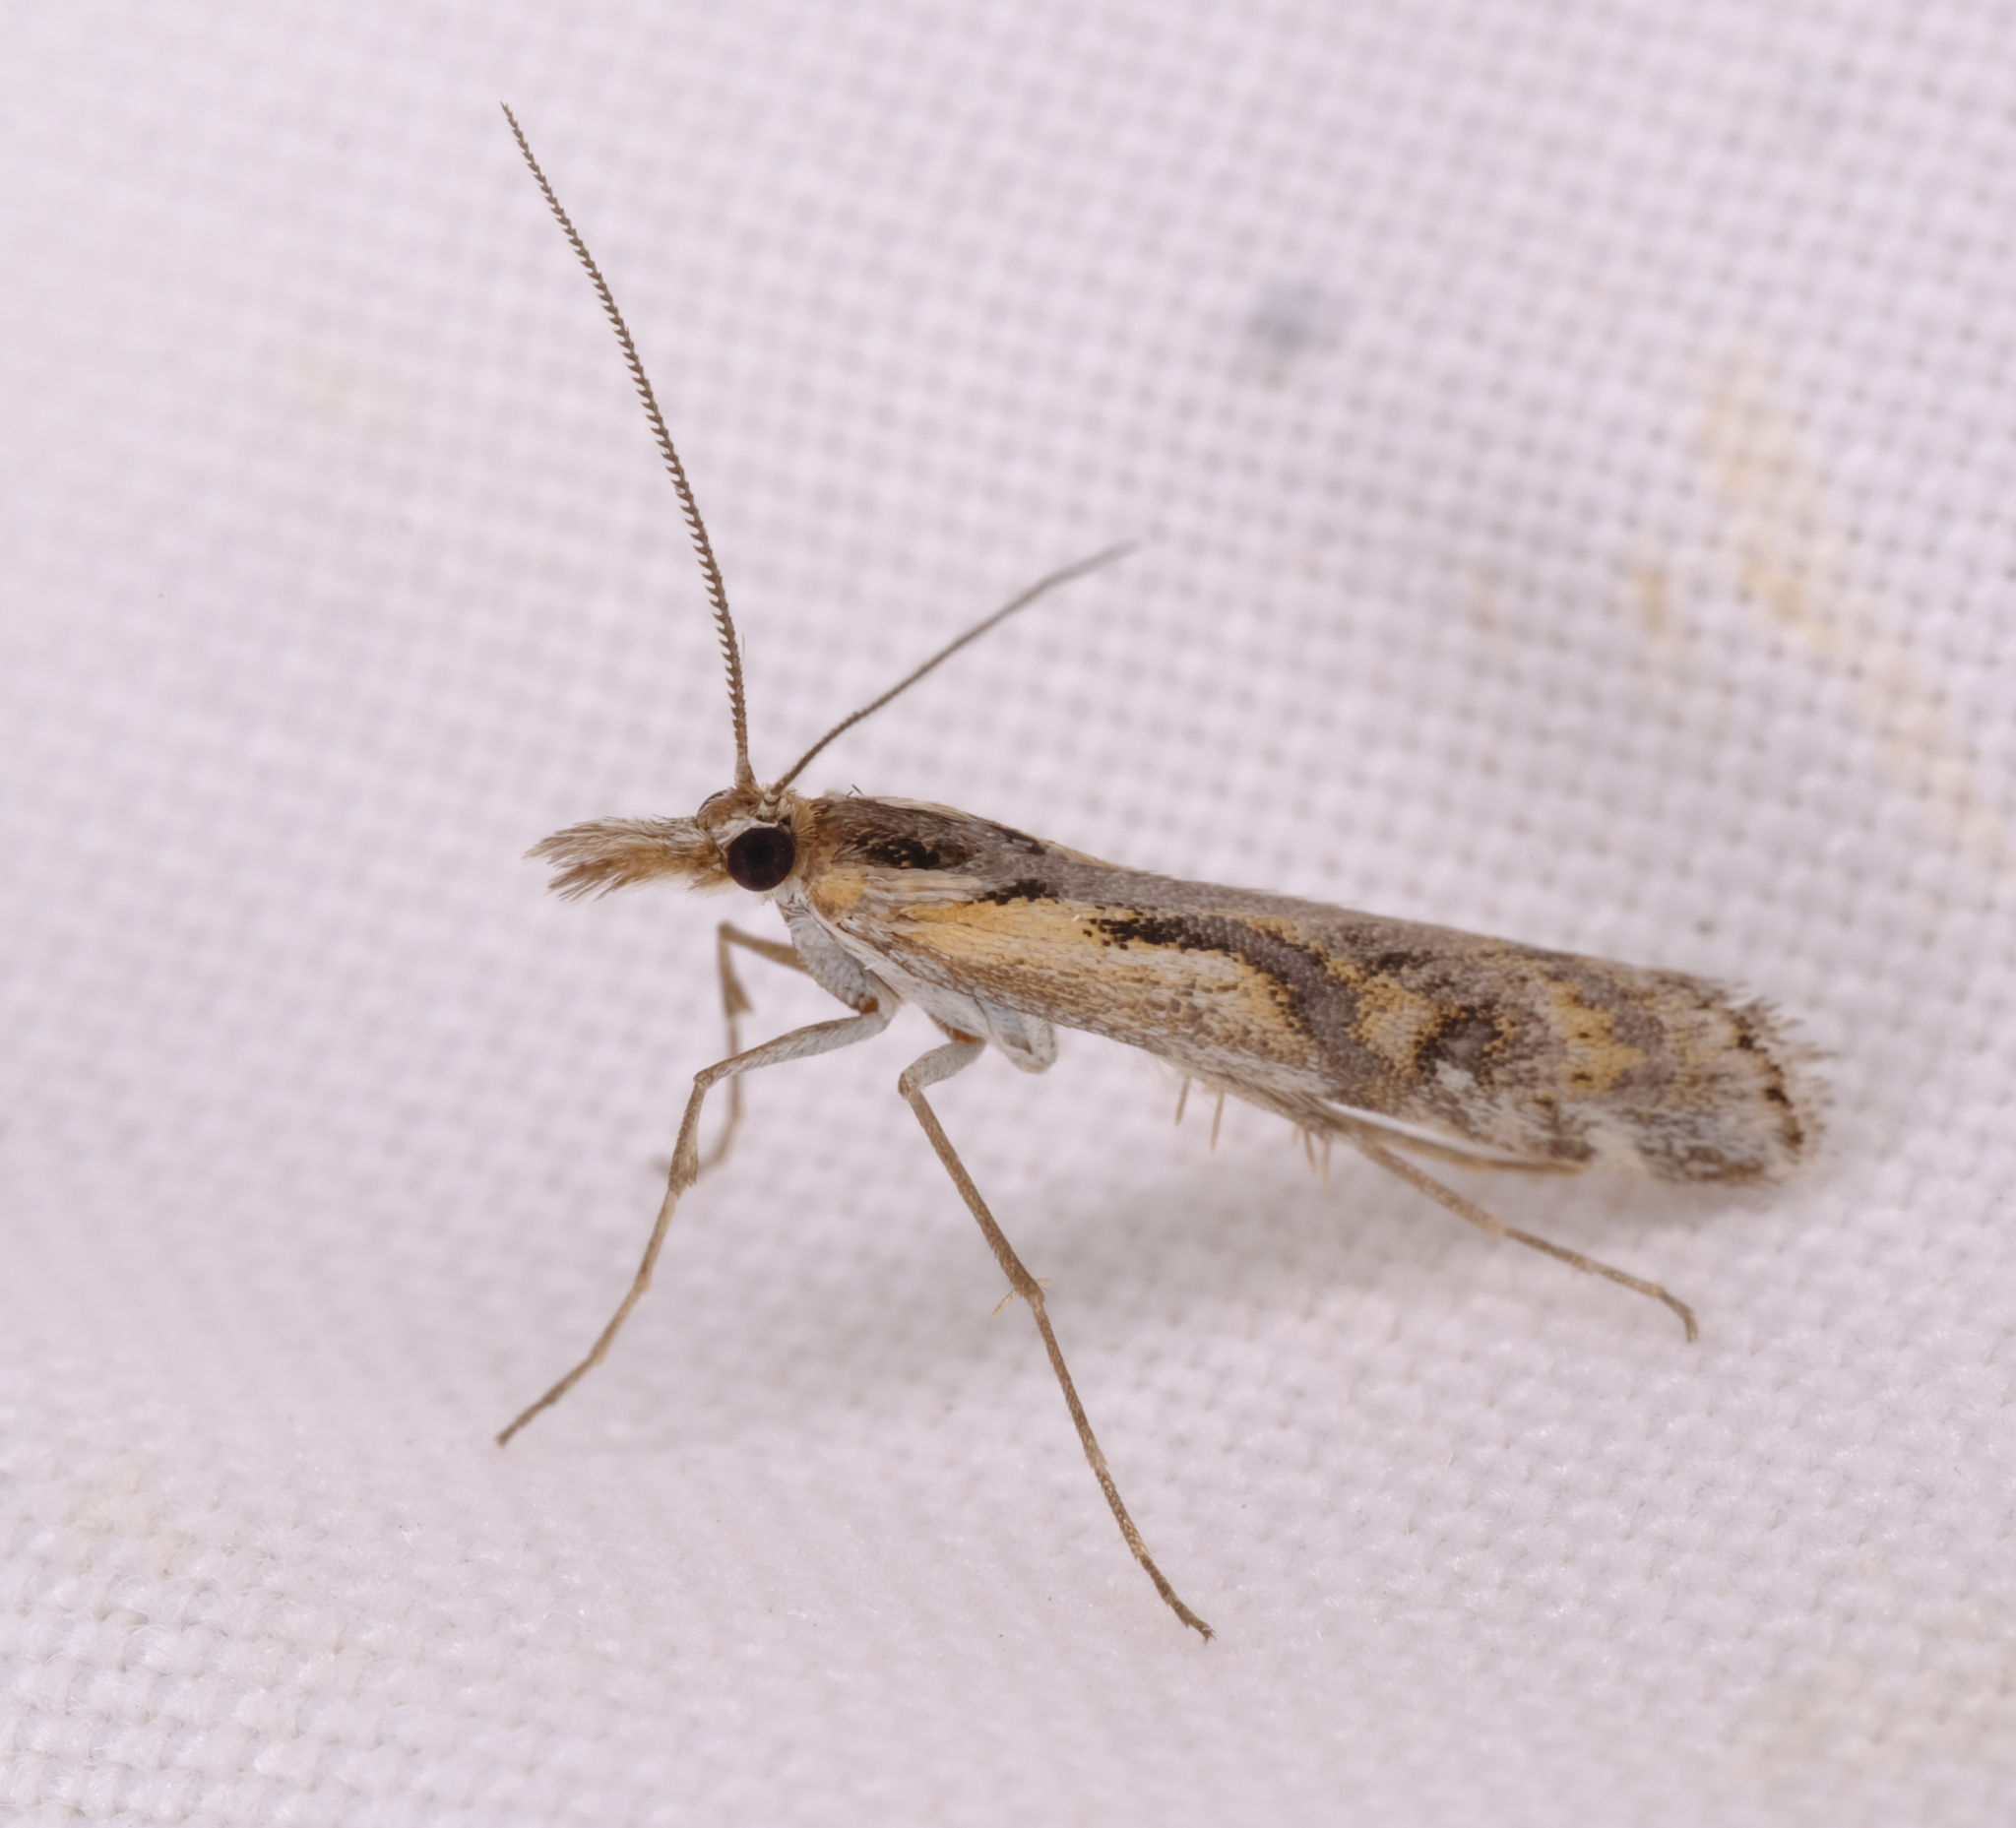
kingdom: Animalia
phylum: Arthropoda
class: Insecta
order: Lepidoptera
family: Crambidae
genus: Hednota
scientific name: Hednota pedionoma
